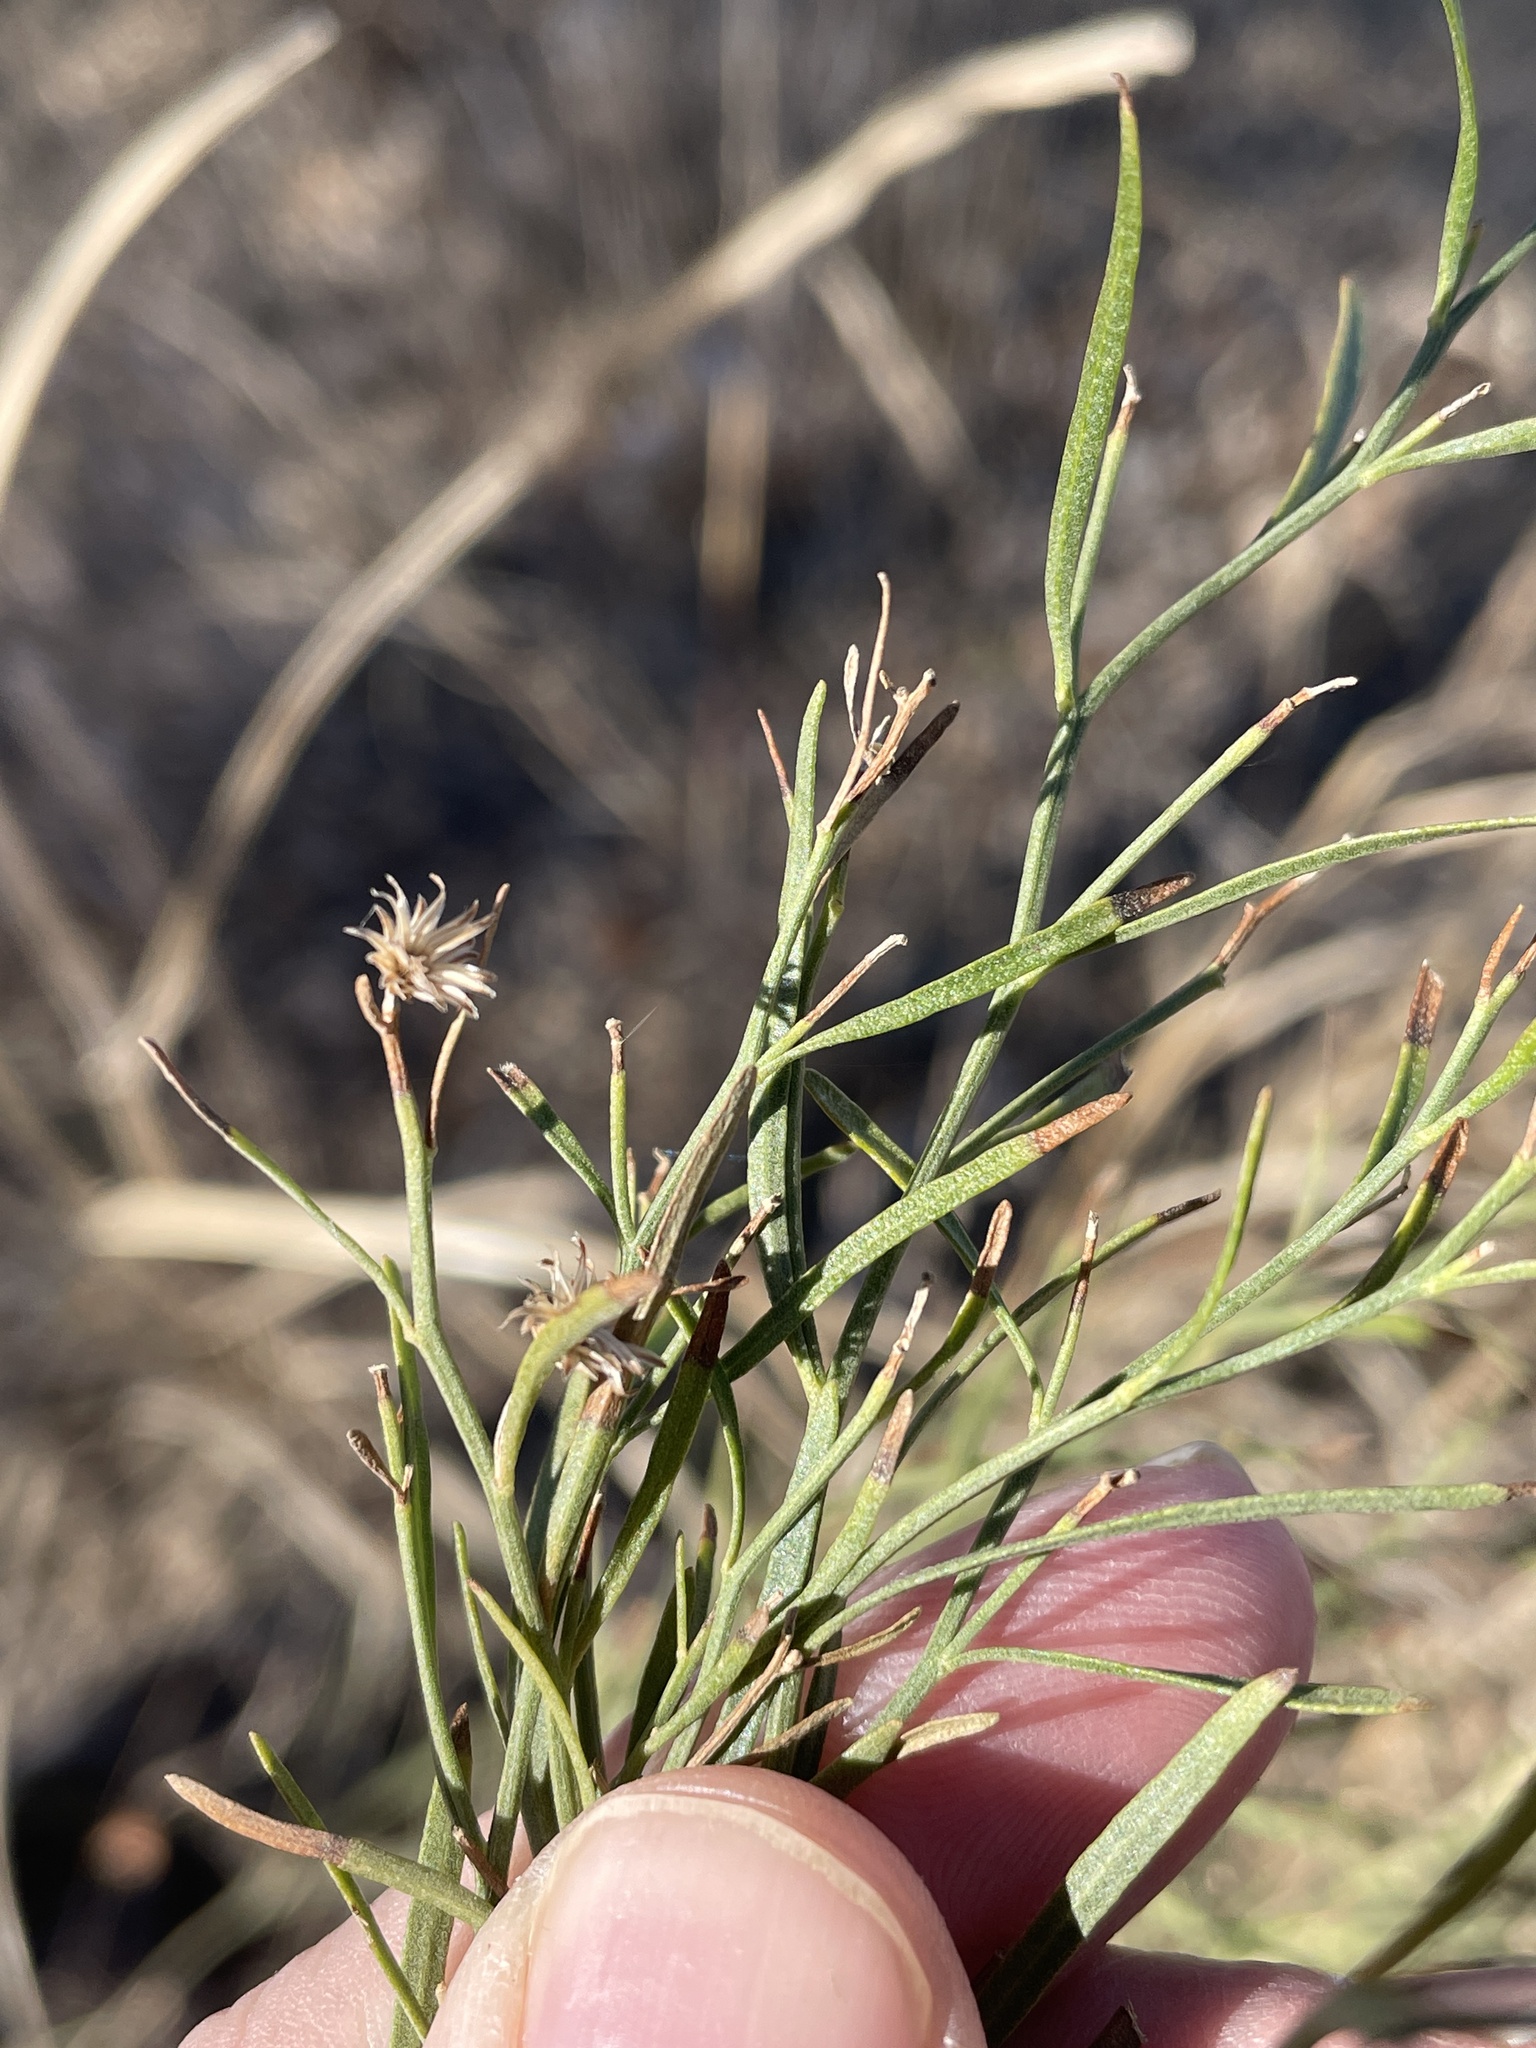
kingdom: Plantae
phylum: Tracheophyta
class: Magnoliopsida
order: Asterales
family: Asteraceae
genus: Baccharis
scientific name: Baccharis neglecta
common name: Roosevelt-weed
